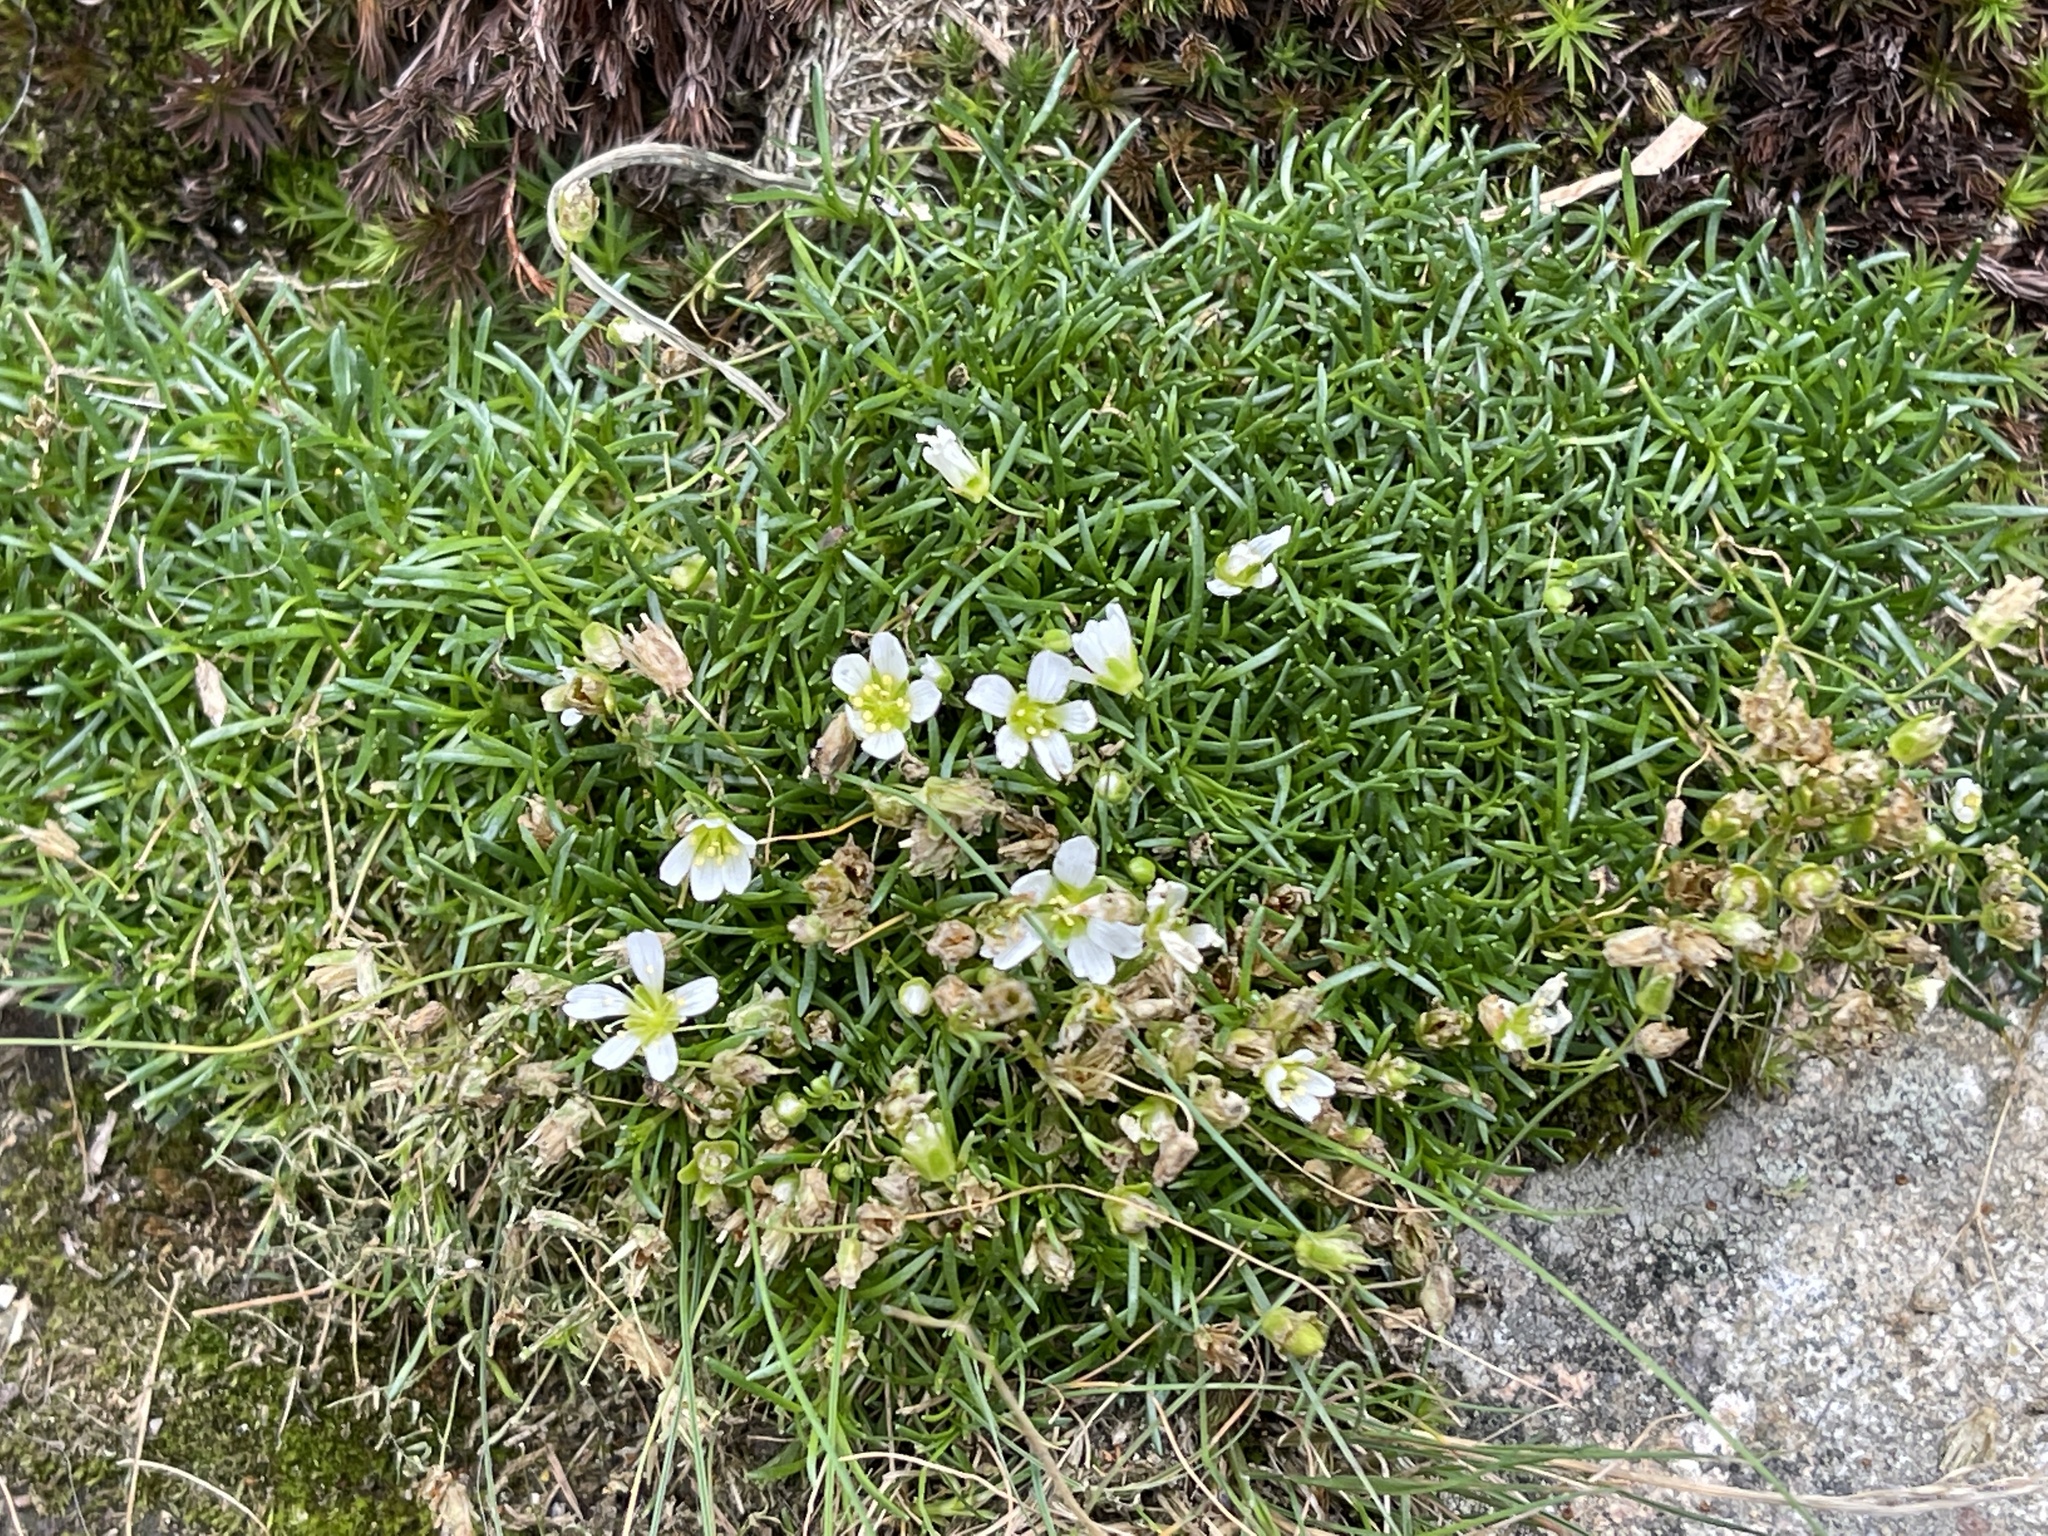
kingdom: Plantae
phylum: Tracheophyta
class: Magnoliopsida
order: Caryophyllales
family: Caryophyllaceae
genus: Geocarpon
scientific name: Geocarpon groenlandicum
